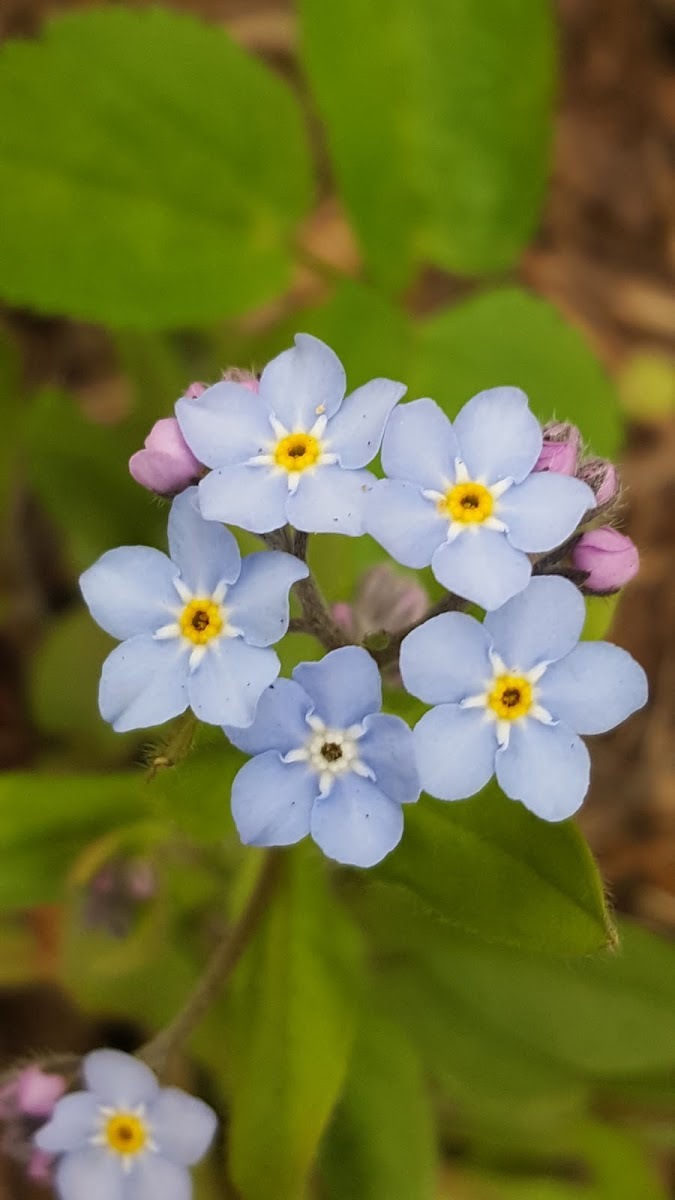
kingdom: Plantae
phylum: Tracheophyta
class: Magnoliopsida
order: Boraginales
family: Boraginaceae
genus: Myosotis
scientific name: Myosotis scorpioides
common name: Water forget-me-not
